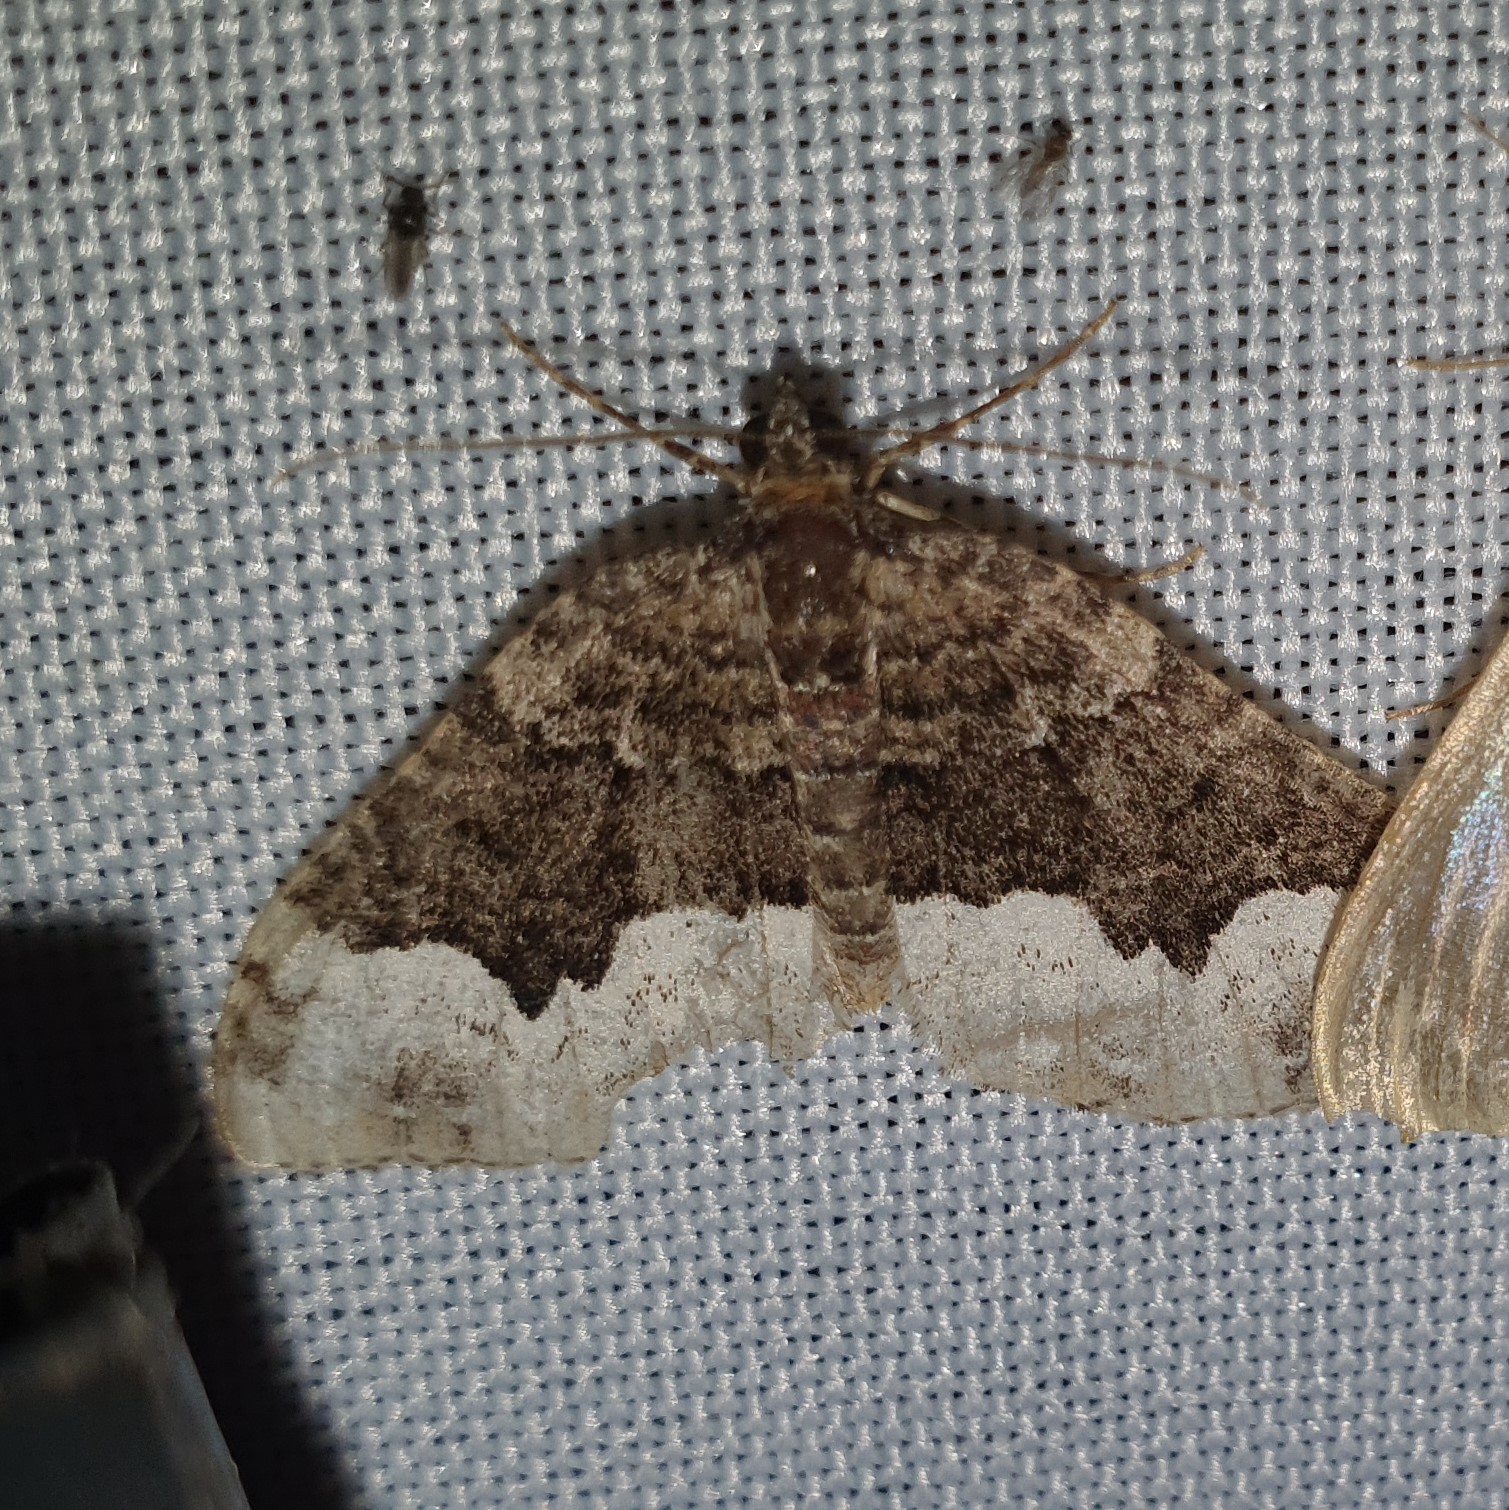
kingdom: Animalia
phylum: Arthropoda
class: Insecta
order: Lepidoptera
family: Geometridae
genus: Euphyia
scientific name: Euphyia biangulata
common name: Cloaked carpet
